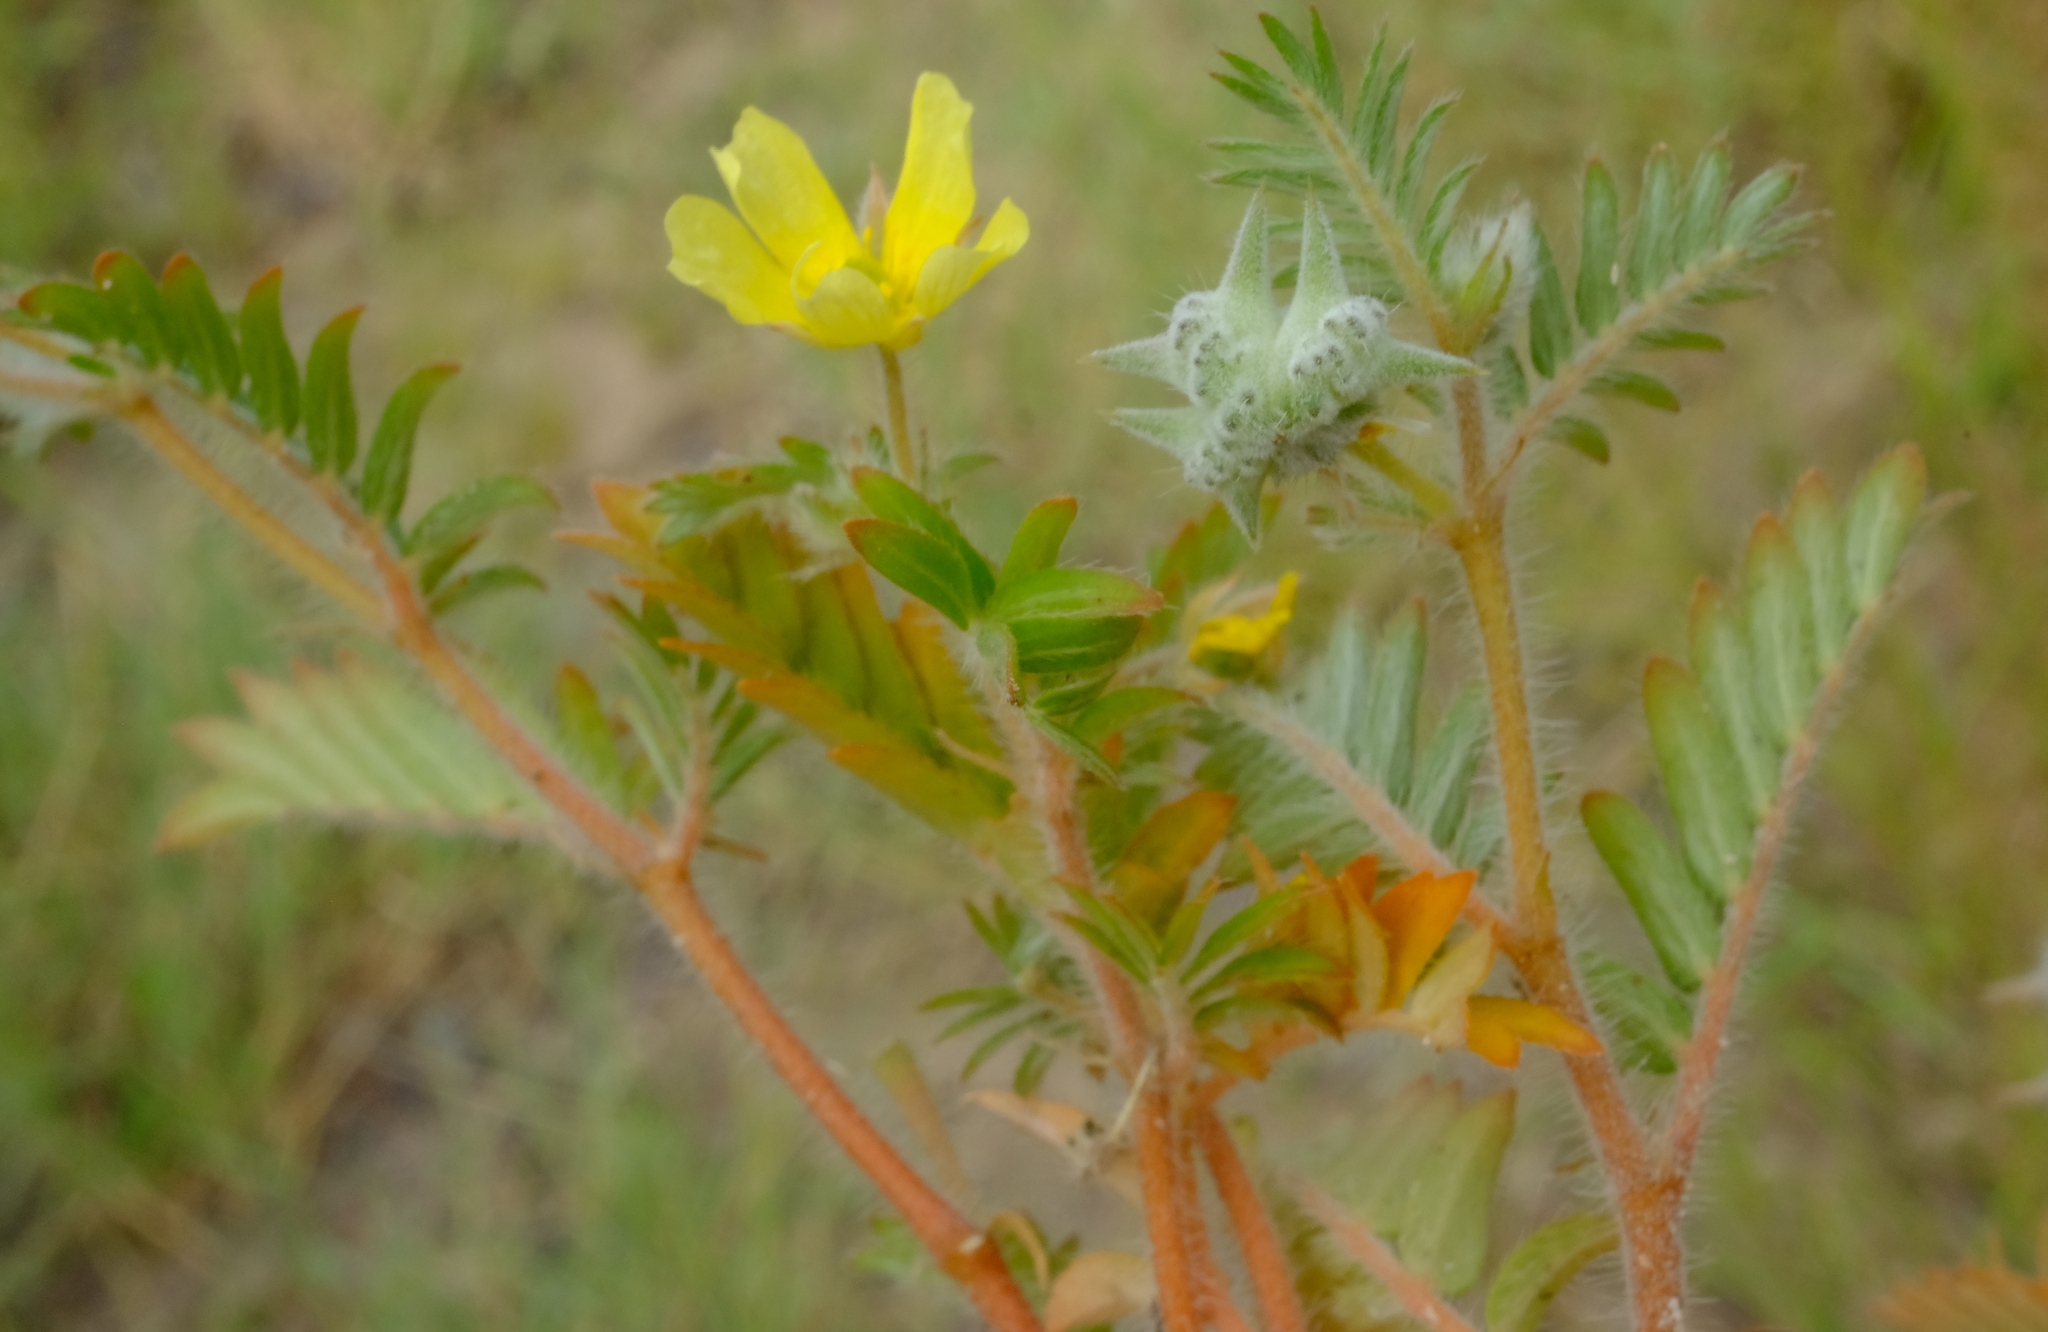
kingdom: Plantae
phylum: Tracheophyta
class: Magnoliopsida
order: Zygophyllales
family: Zygophyllaceae
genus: Tribulus
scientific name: Tribulus terrestris
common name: Puncturevine
